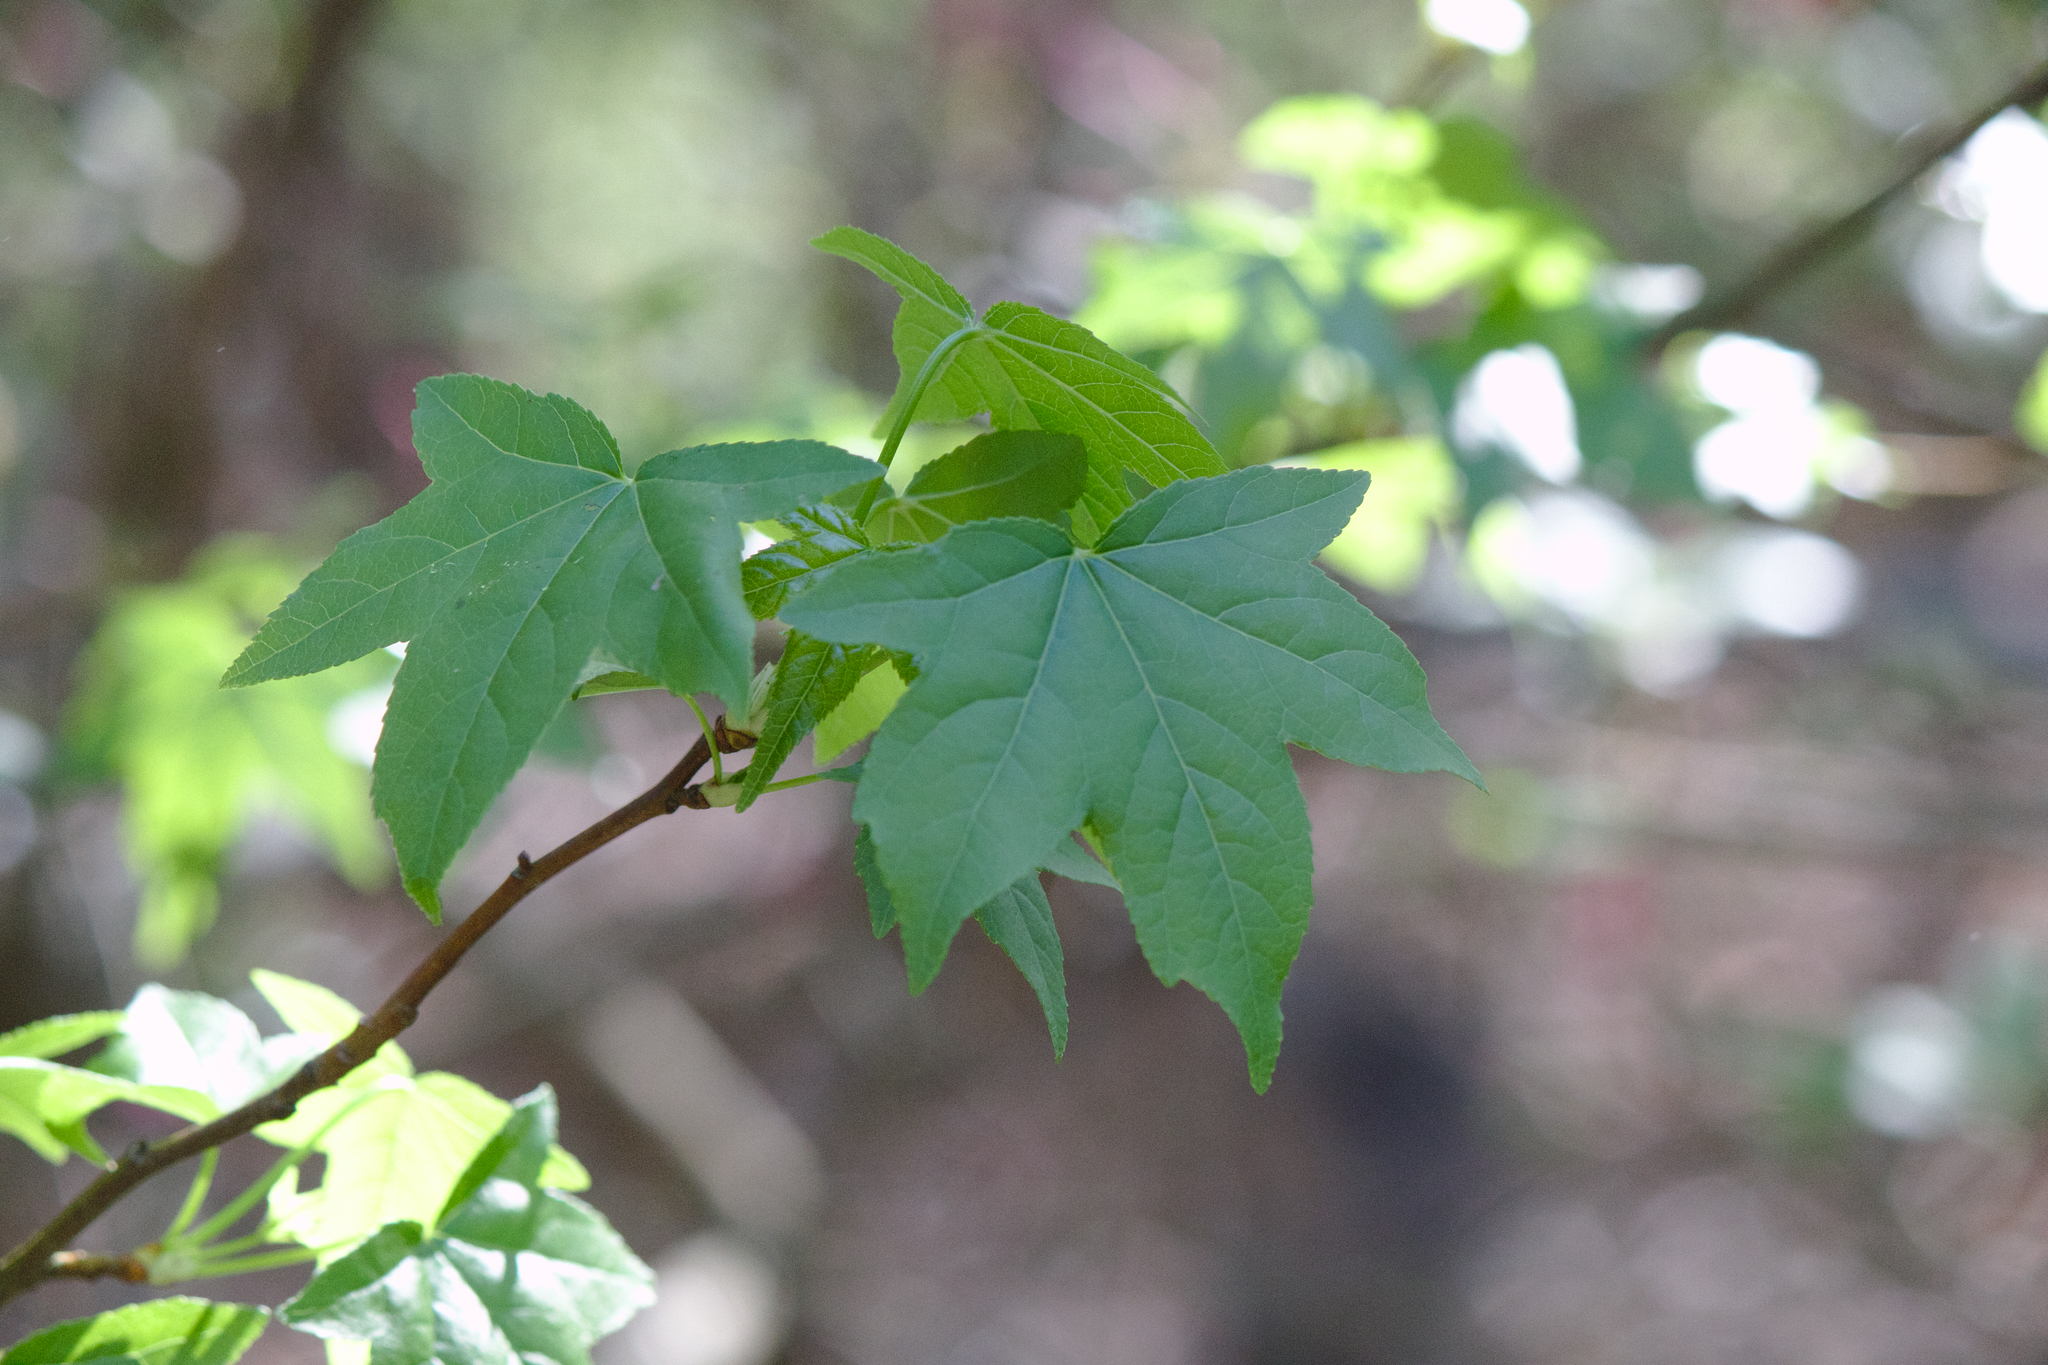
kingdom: Plantae
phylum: Tracheophyta
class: Magnoliopsida
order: Saxifragales
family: Altingiaceae
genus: Liquidambar
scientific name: Liquidambar styraciflua
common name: Sweet gum
